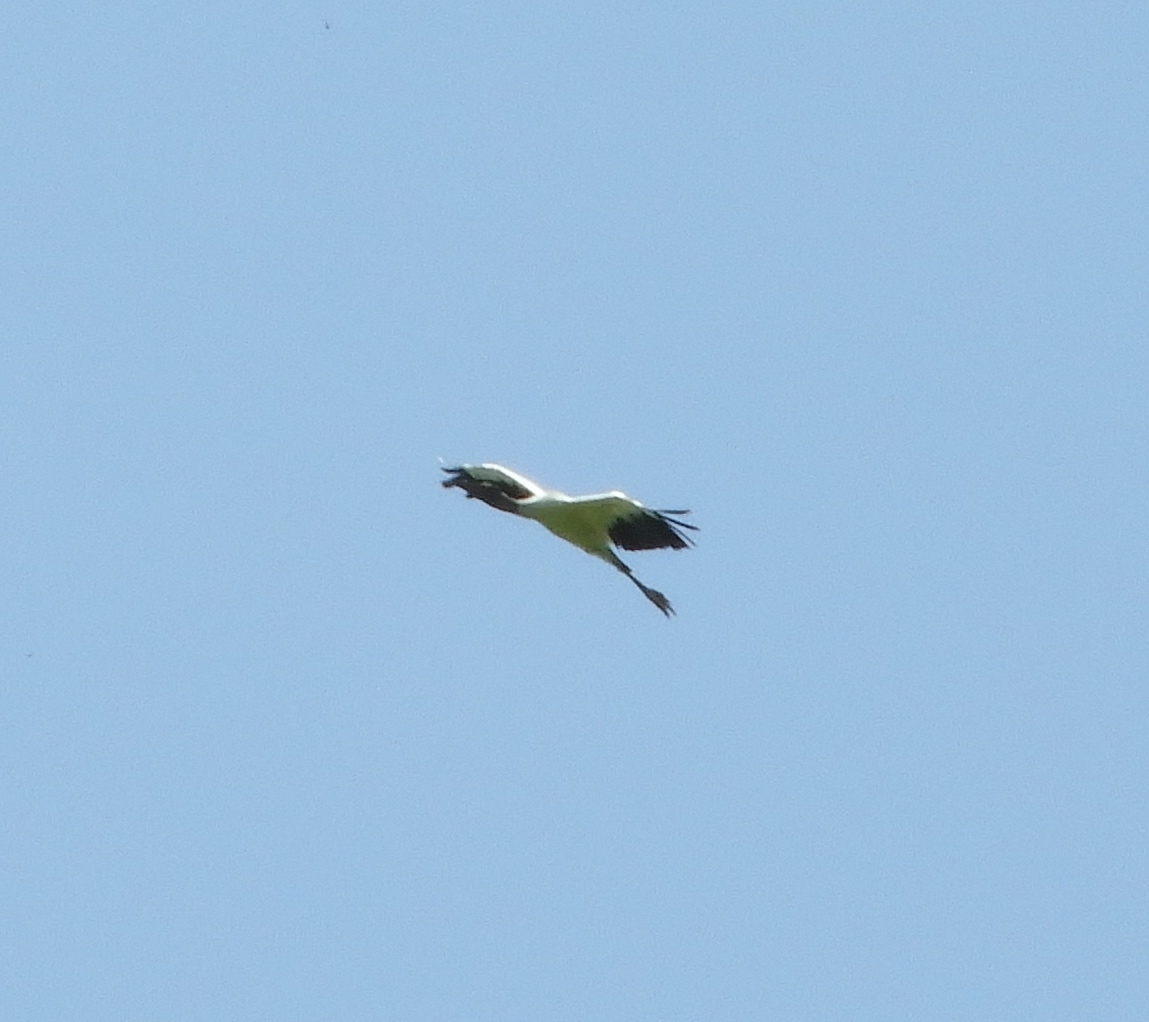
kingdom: Animalia
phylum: Chordata
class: Aves
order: Ciconiiformes
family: Ciconiidae
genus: Mycteria
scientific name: Mycteria americana
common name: Wood stork
